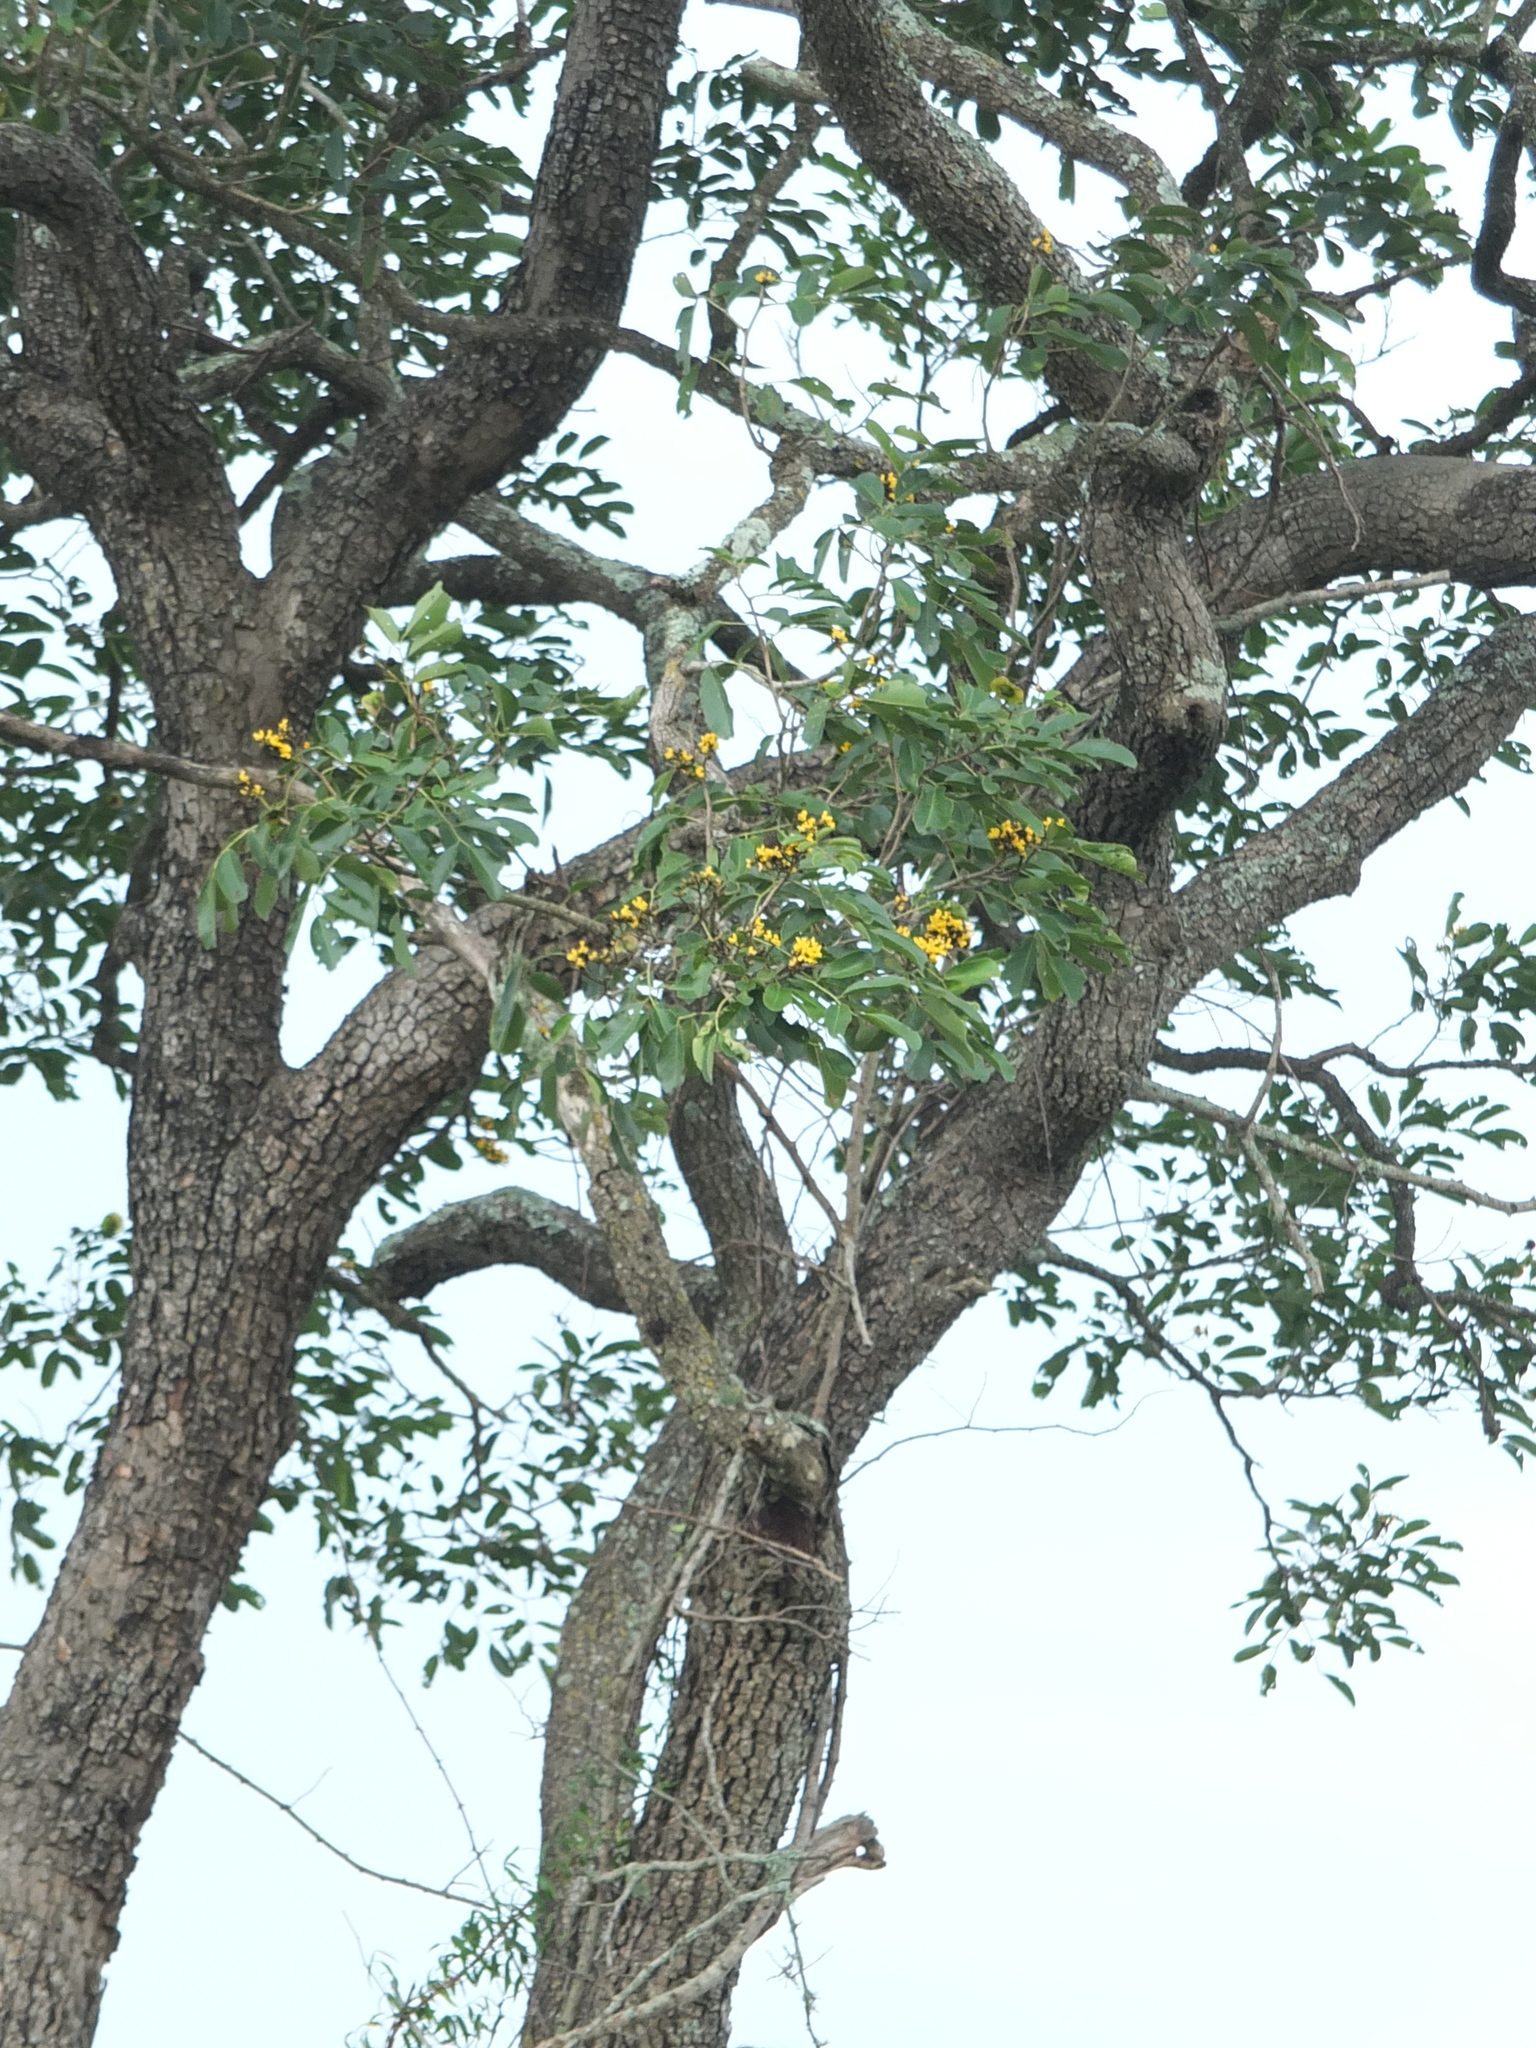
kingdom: Plantae
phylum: Tracheophyta
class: Magnoliopsida
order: Fabales
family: Fabaceae
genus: Pterocarpus
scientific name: Pterocarpus marsupium
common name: East indian/malabar kino
